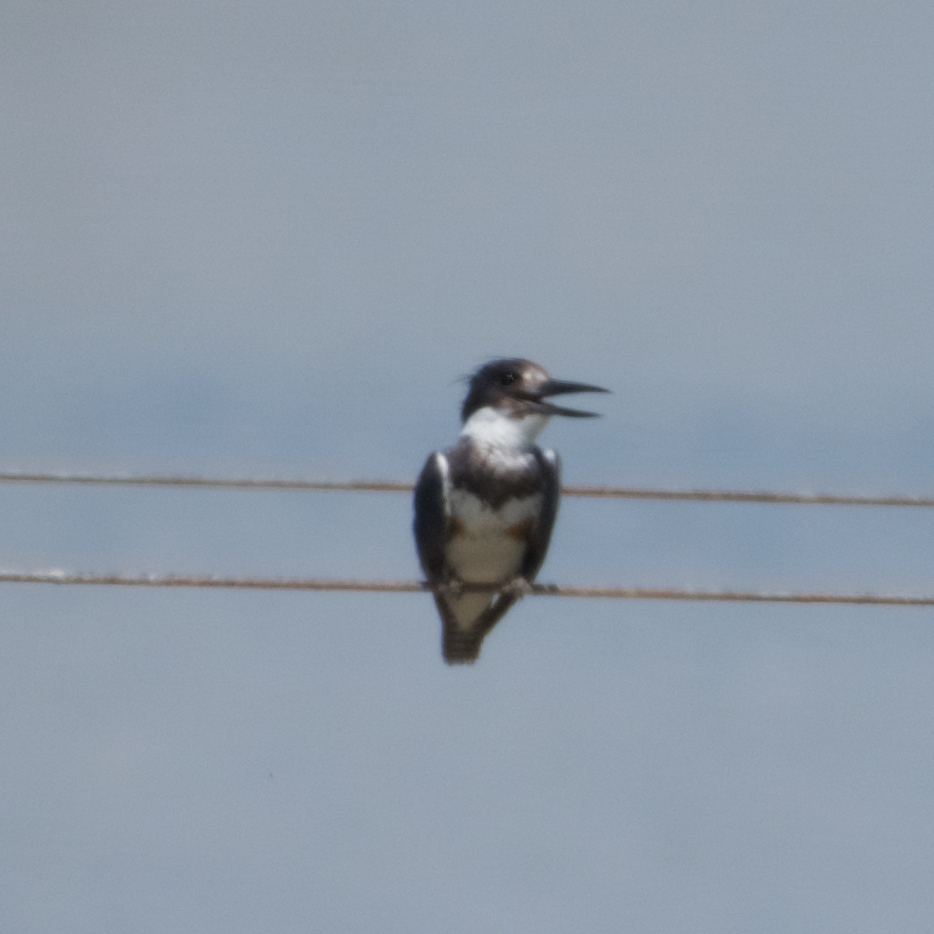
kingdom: Animalia
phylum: Chordata
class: Aves
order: Coraciiformes
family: Alcedinidae
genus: Megaceryle
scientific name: Megaceryle alcyon
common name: Belted kingfisher
